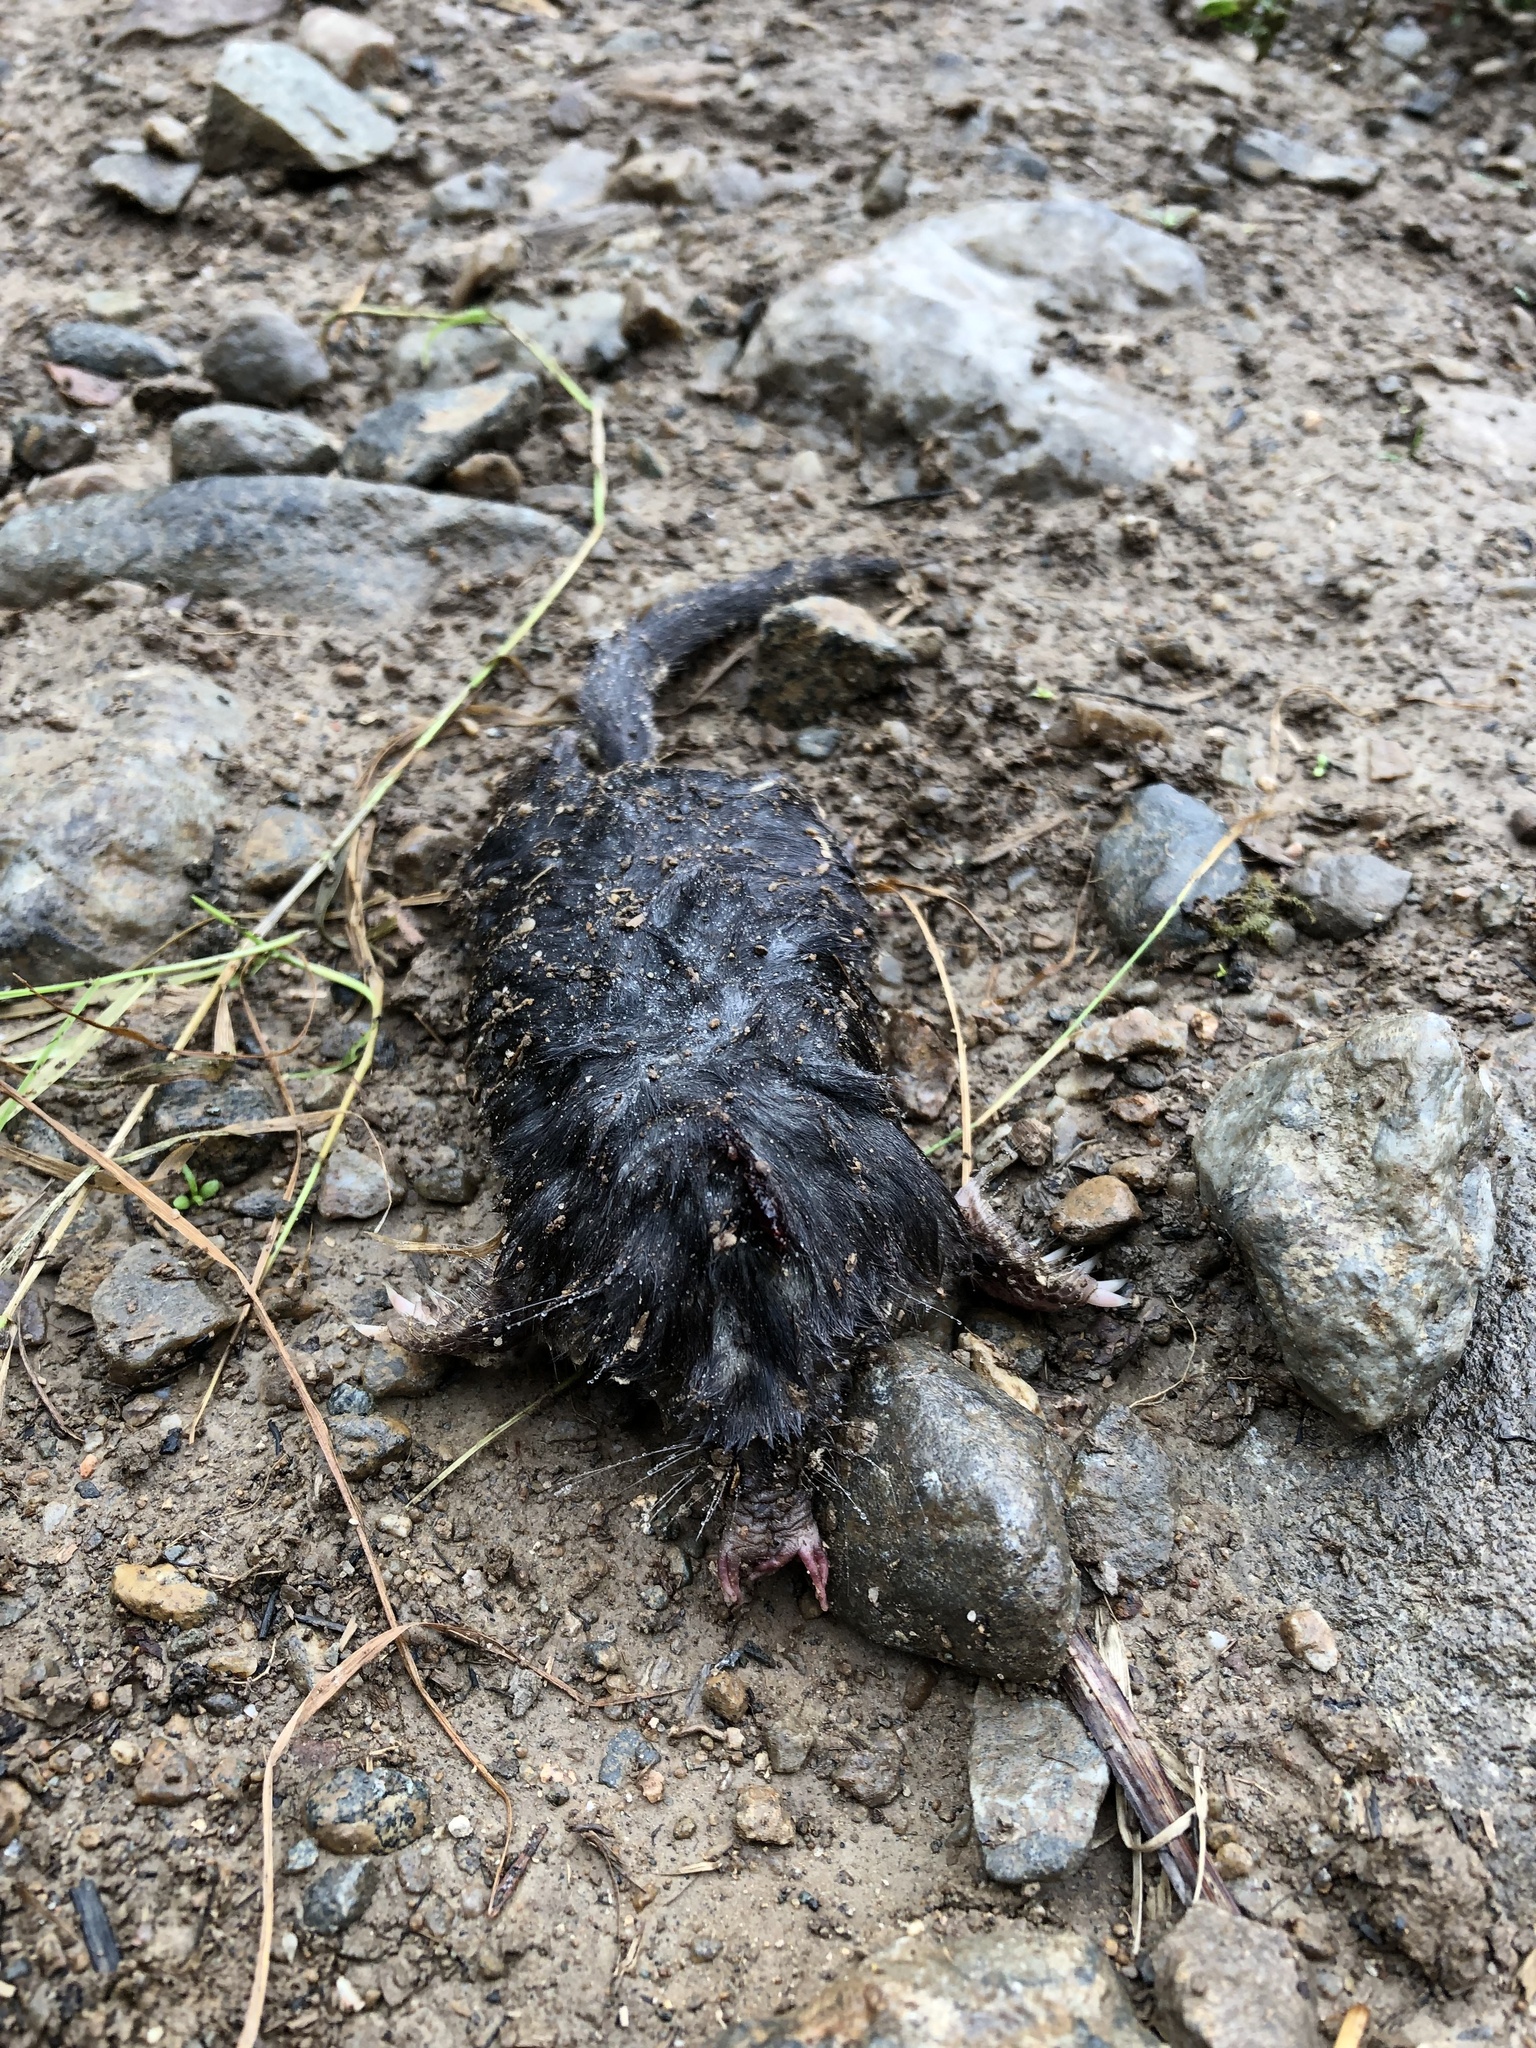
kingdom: Animalia
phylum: Chordata
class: Mammalia
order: Soricomorpha
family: Talpidae
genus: Condylura
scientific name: Condylura cristata
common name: Star-nosed mole
